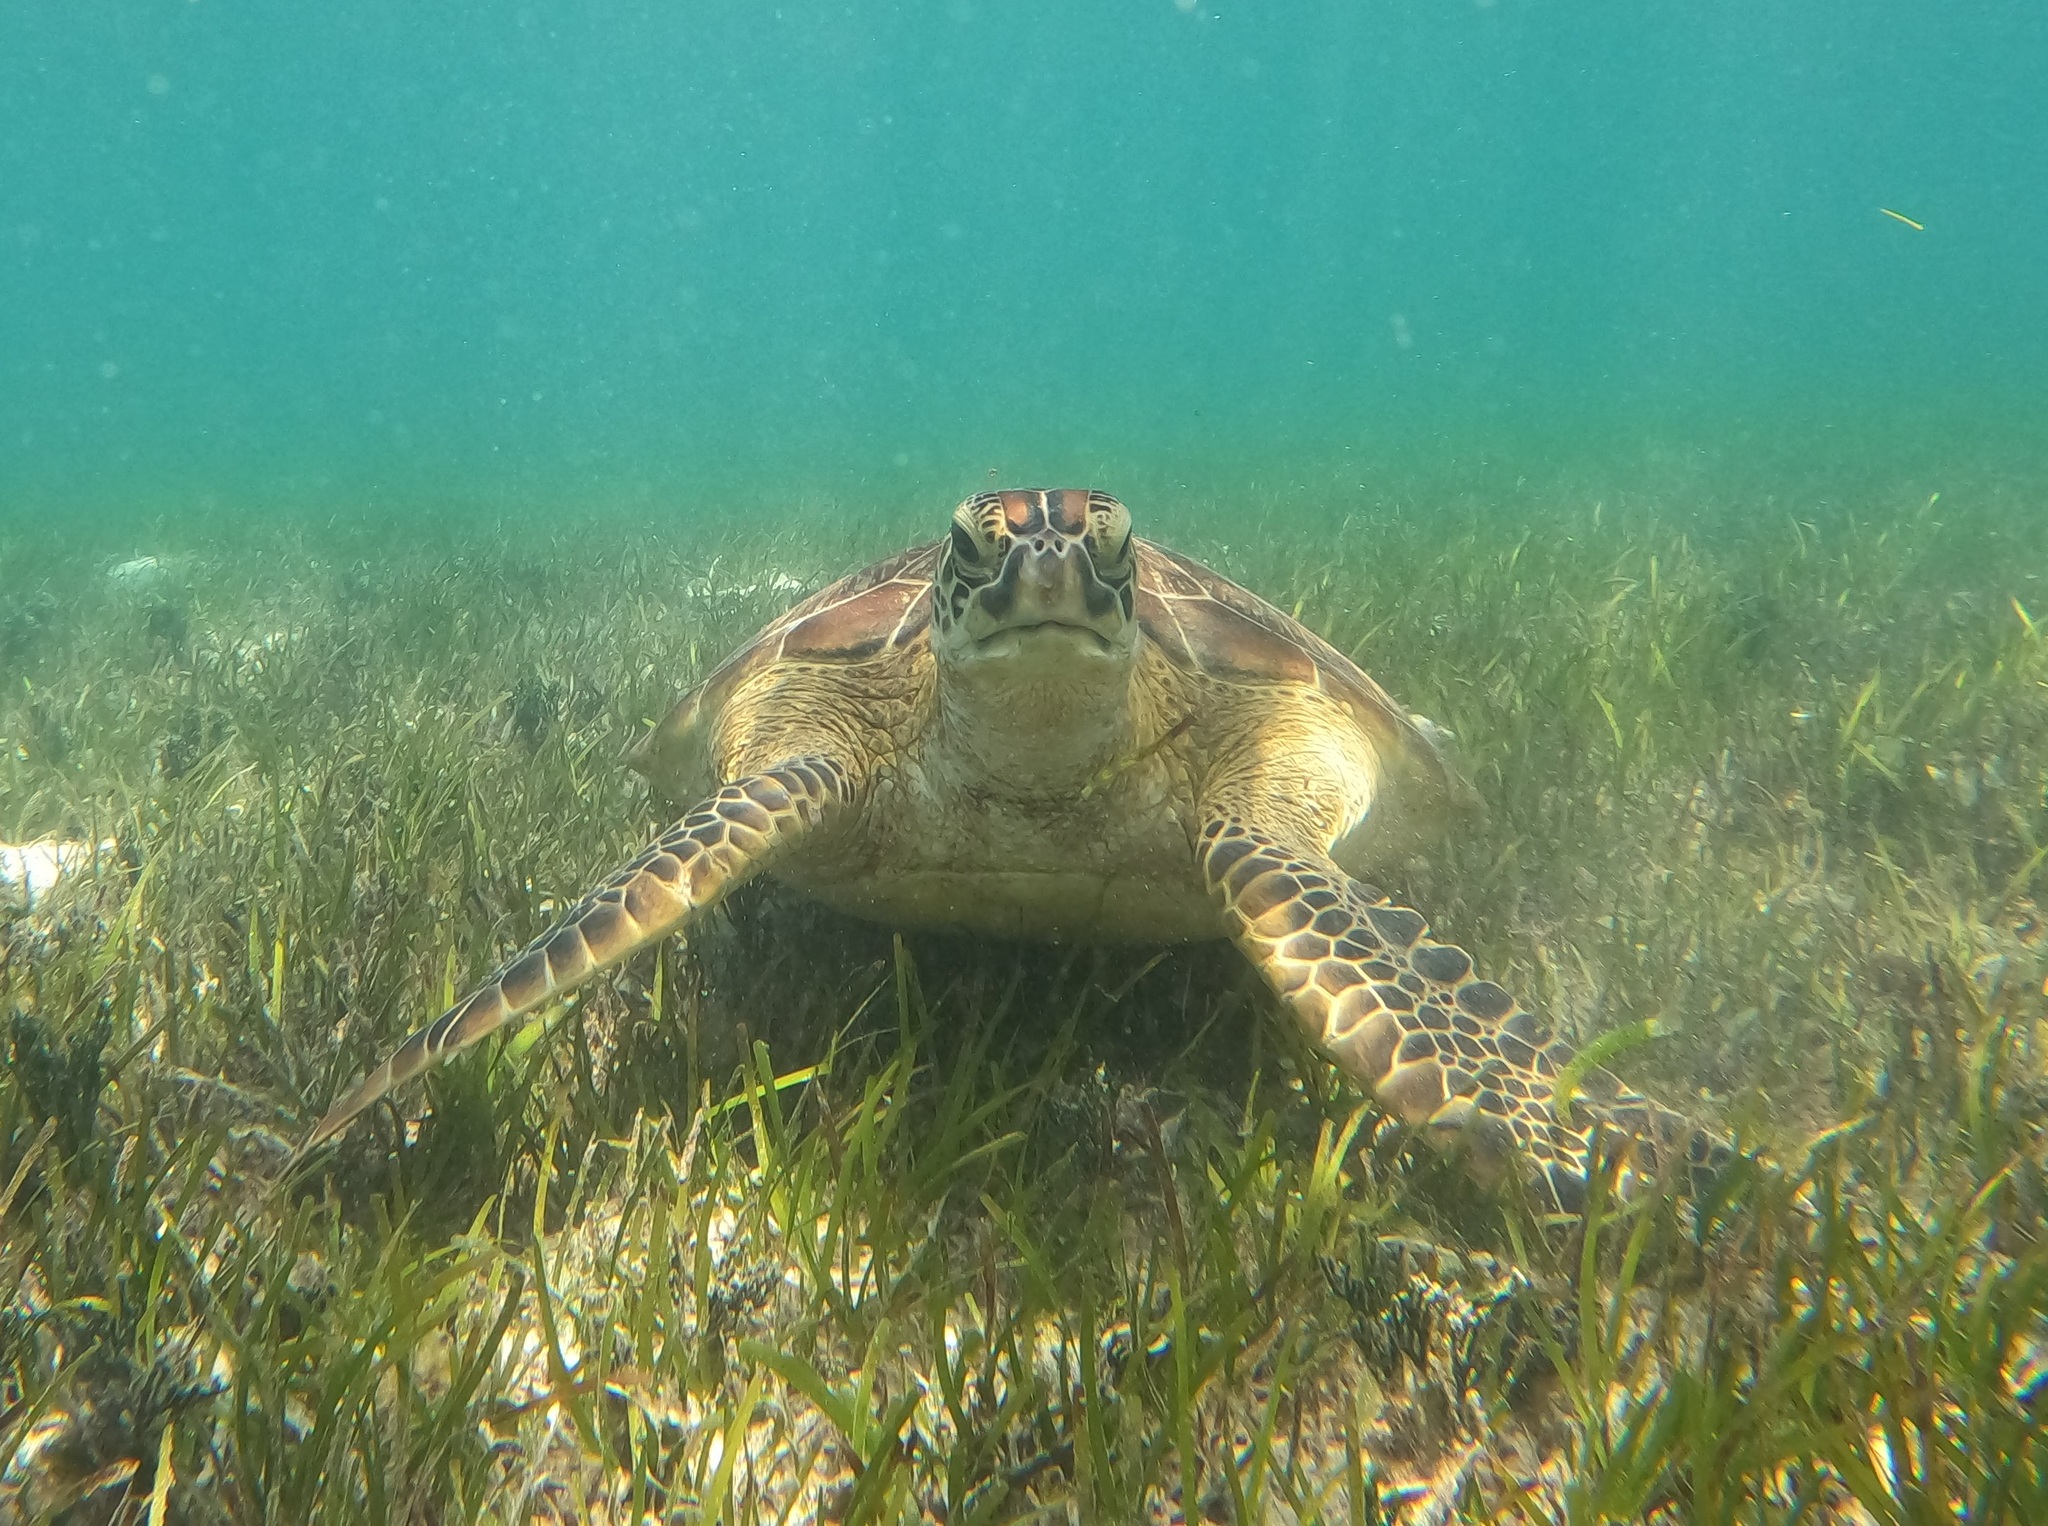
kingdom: Animalia
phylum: Chordata
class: Testudines
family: Cheloniidae
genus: Chelonia
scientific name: Chelonia mydas
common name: Green turtle
